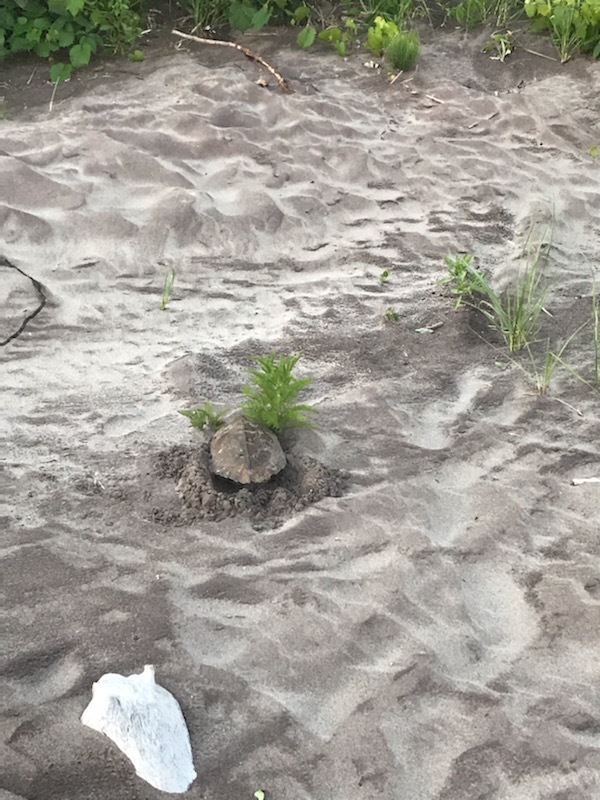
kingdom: Animalia
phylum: Chordata
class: Testudines
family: Emydidae
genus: Graptemys
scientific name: Graptemys geographica
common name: Common map turtle
